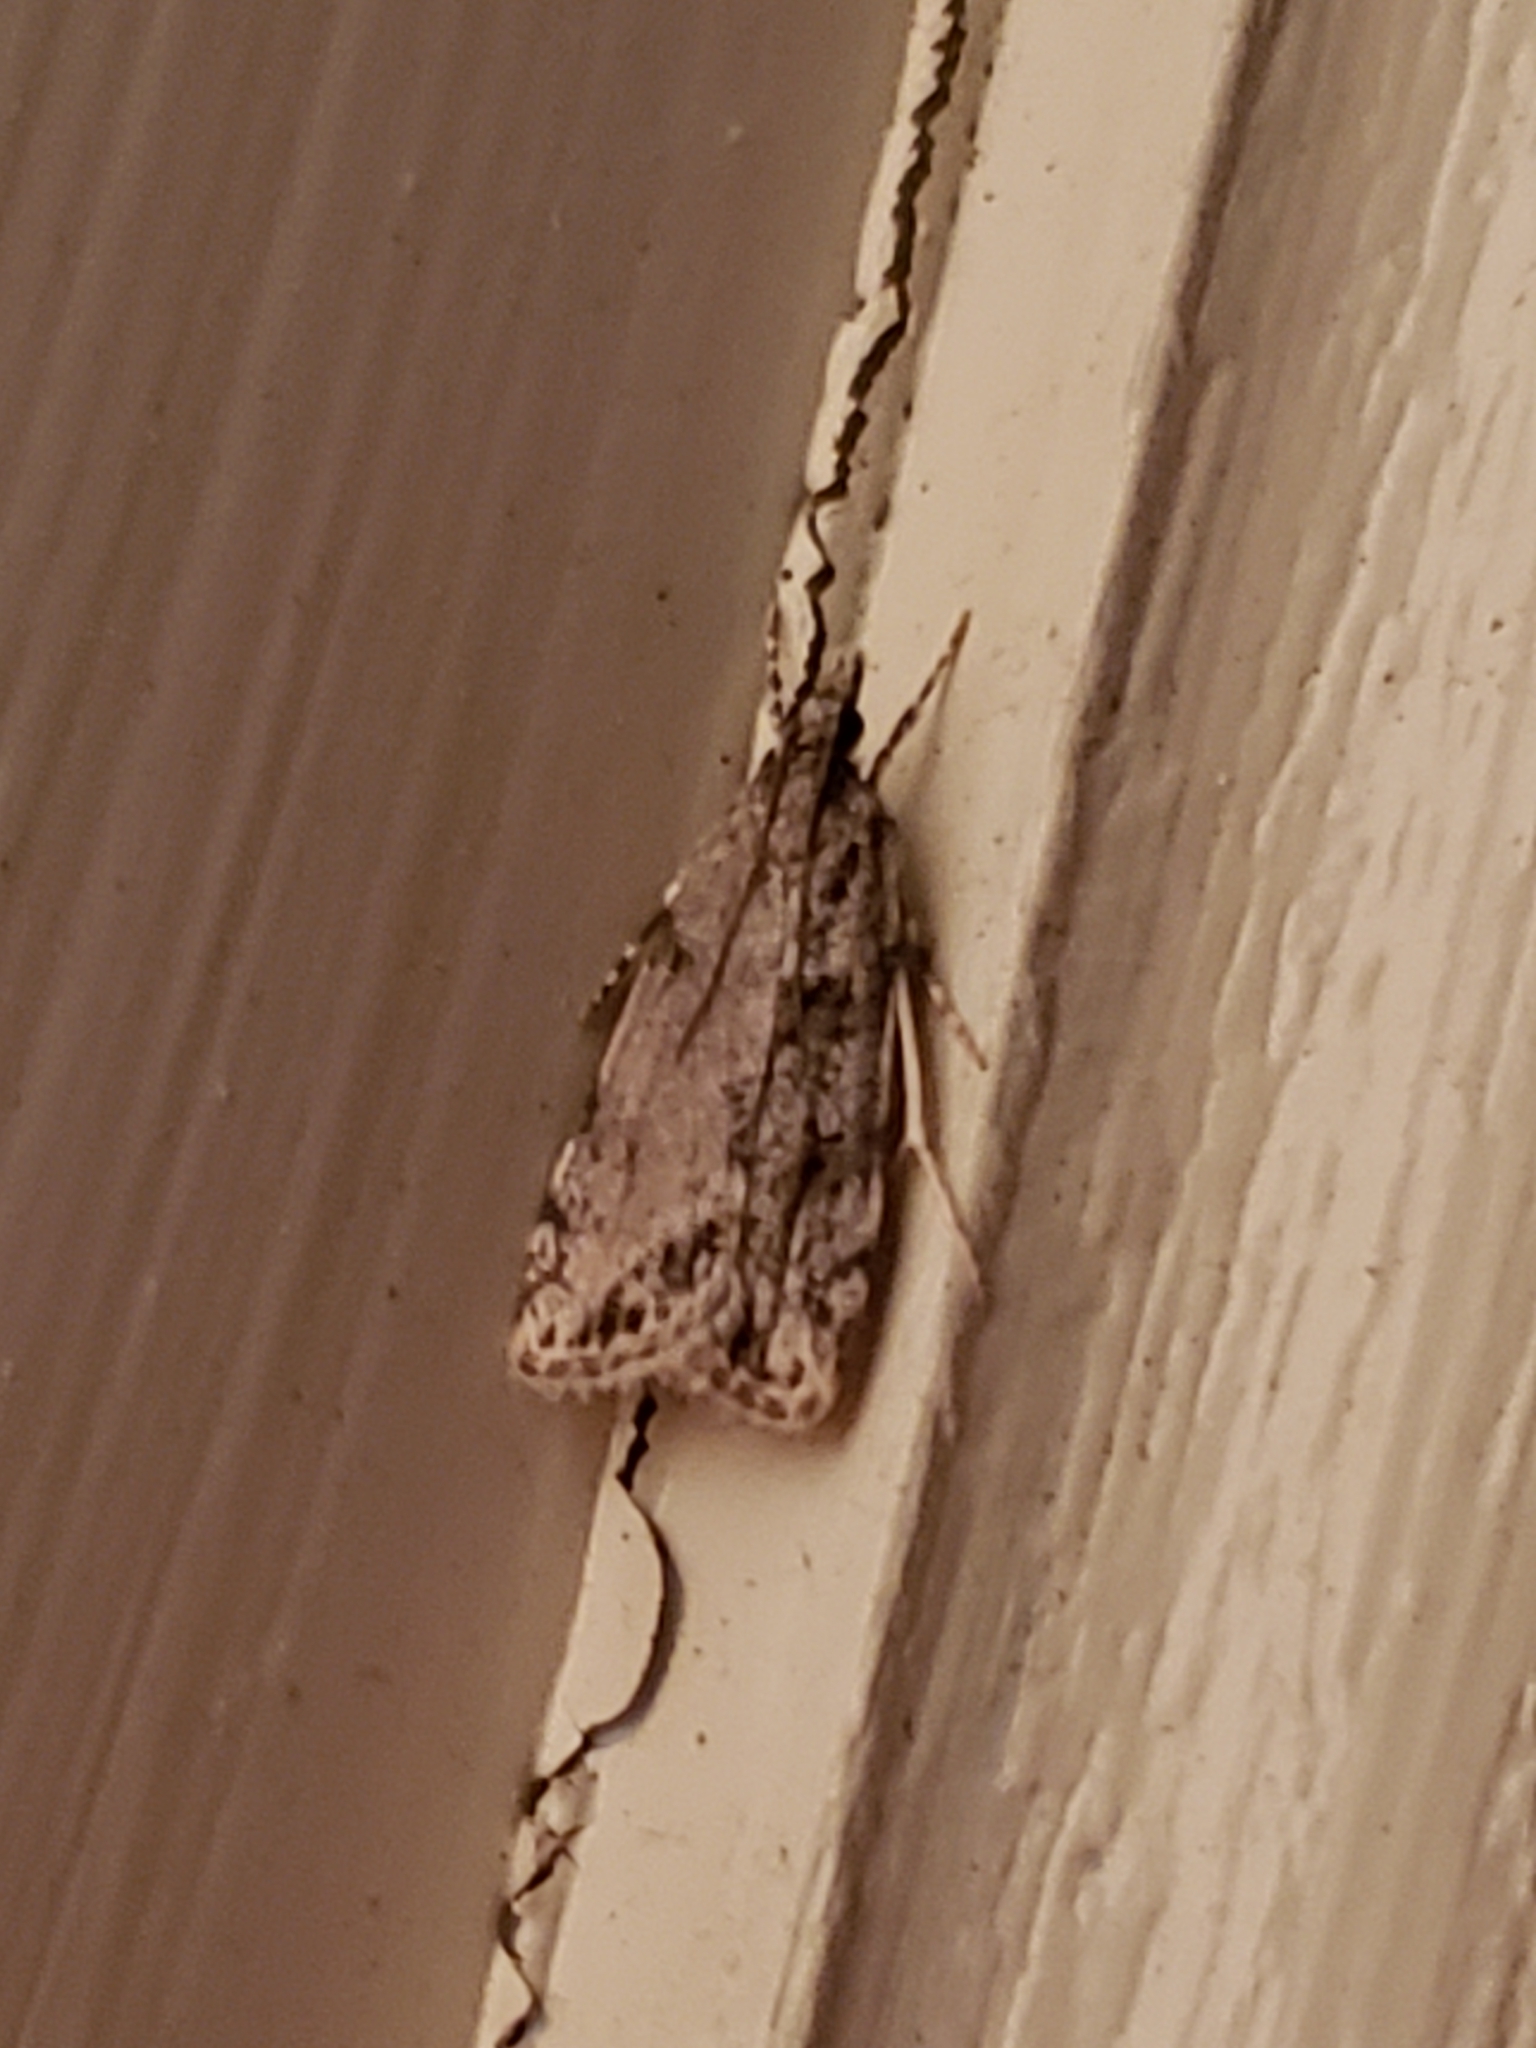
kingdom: Animalia
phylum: Arthropoda
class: Insecta
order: Lepidoptera
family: Crambidae
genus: Scoparia
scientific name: Scoparia biplagialis
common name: Double-striped scoparia moth
